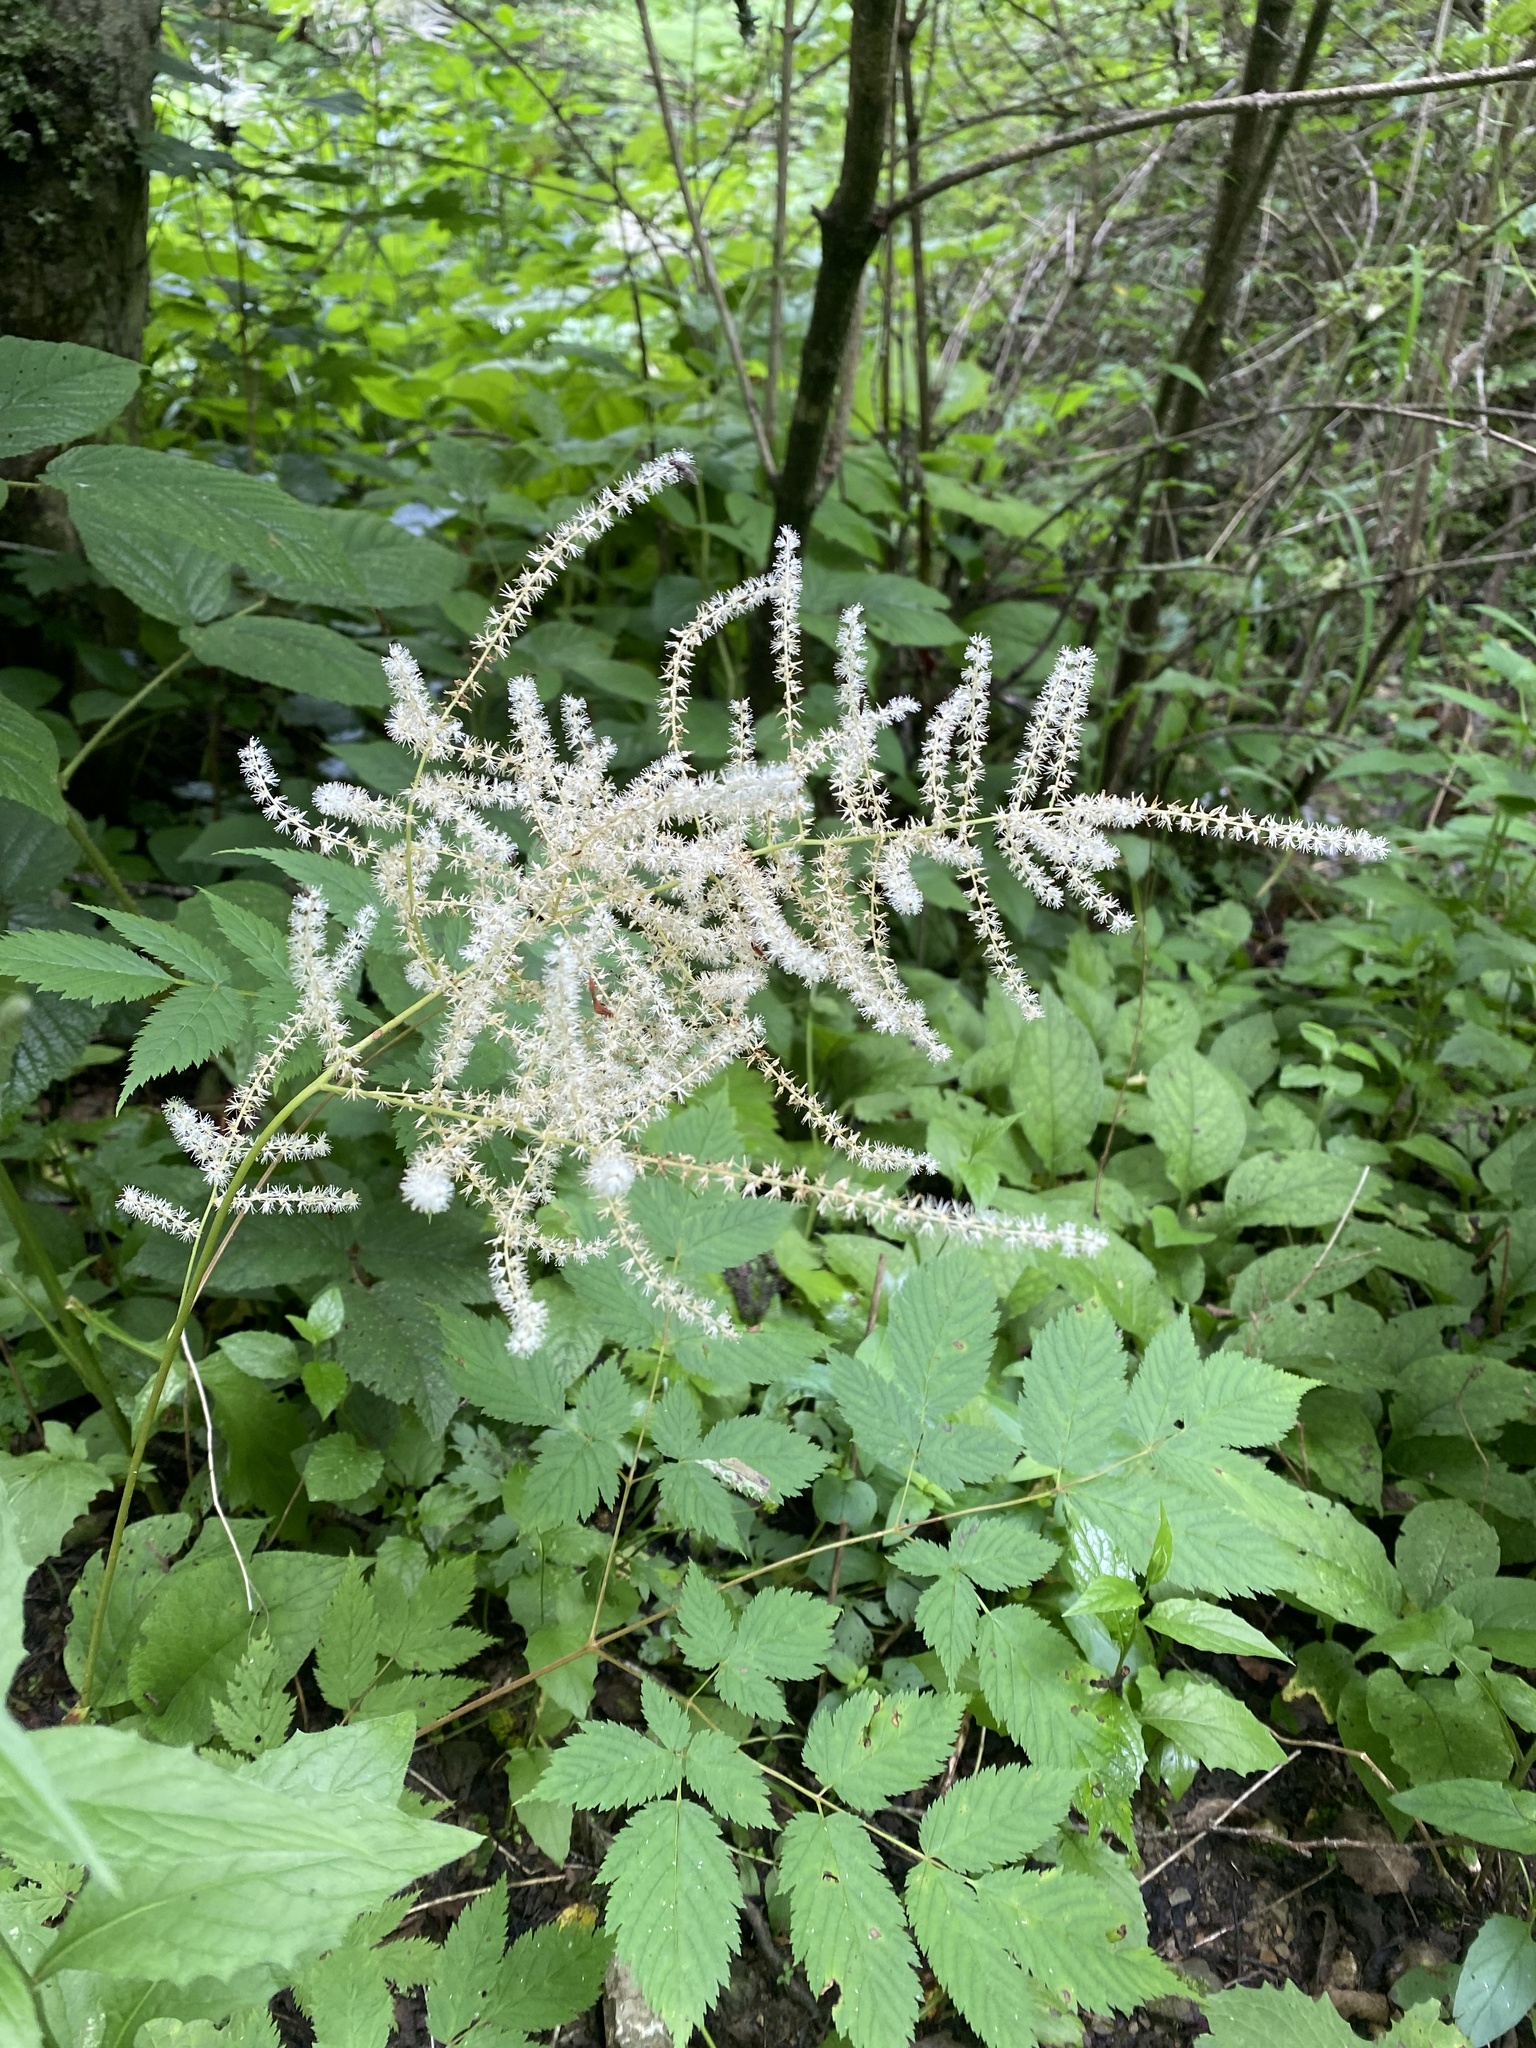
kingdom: Plantae
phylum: Tracheophyta
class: Magnoliopsida
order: Rosales
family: Rosaceae
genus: Aruncus
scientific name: Aruncus dioicus
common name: Buck's-beard
